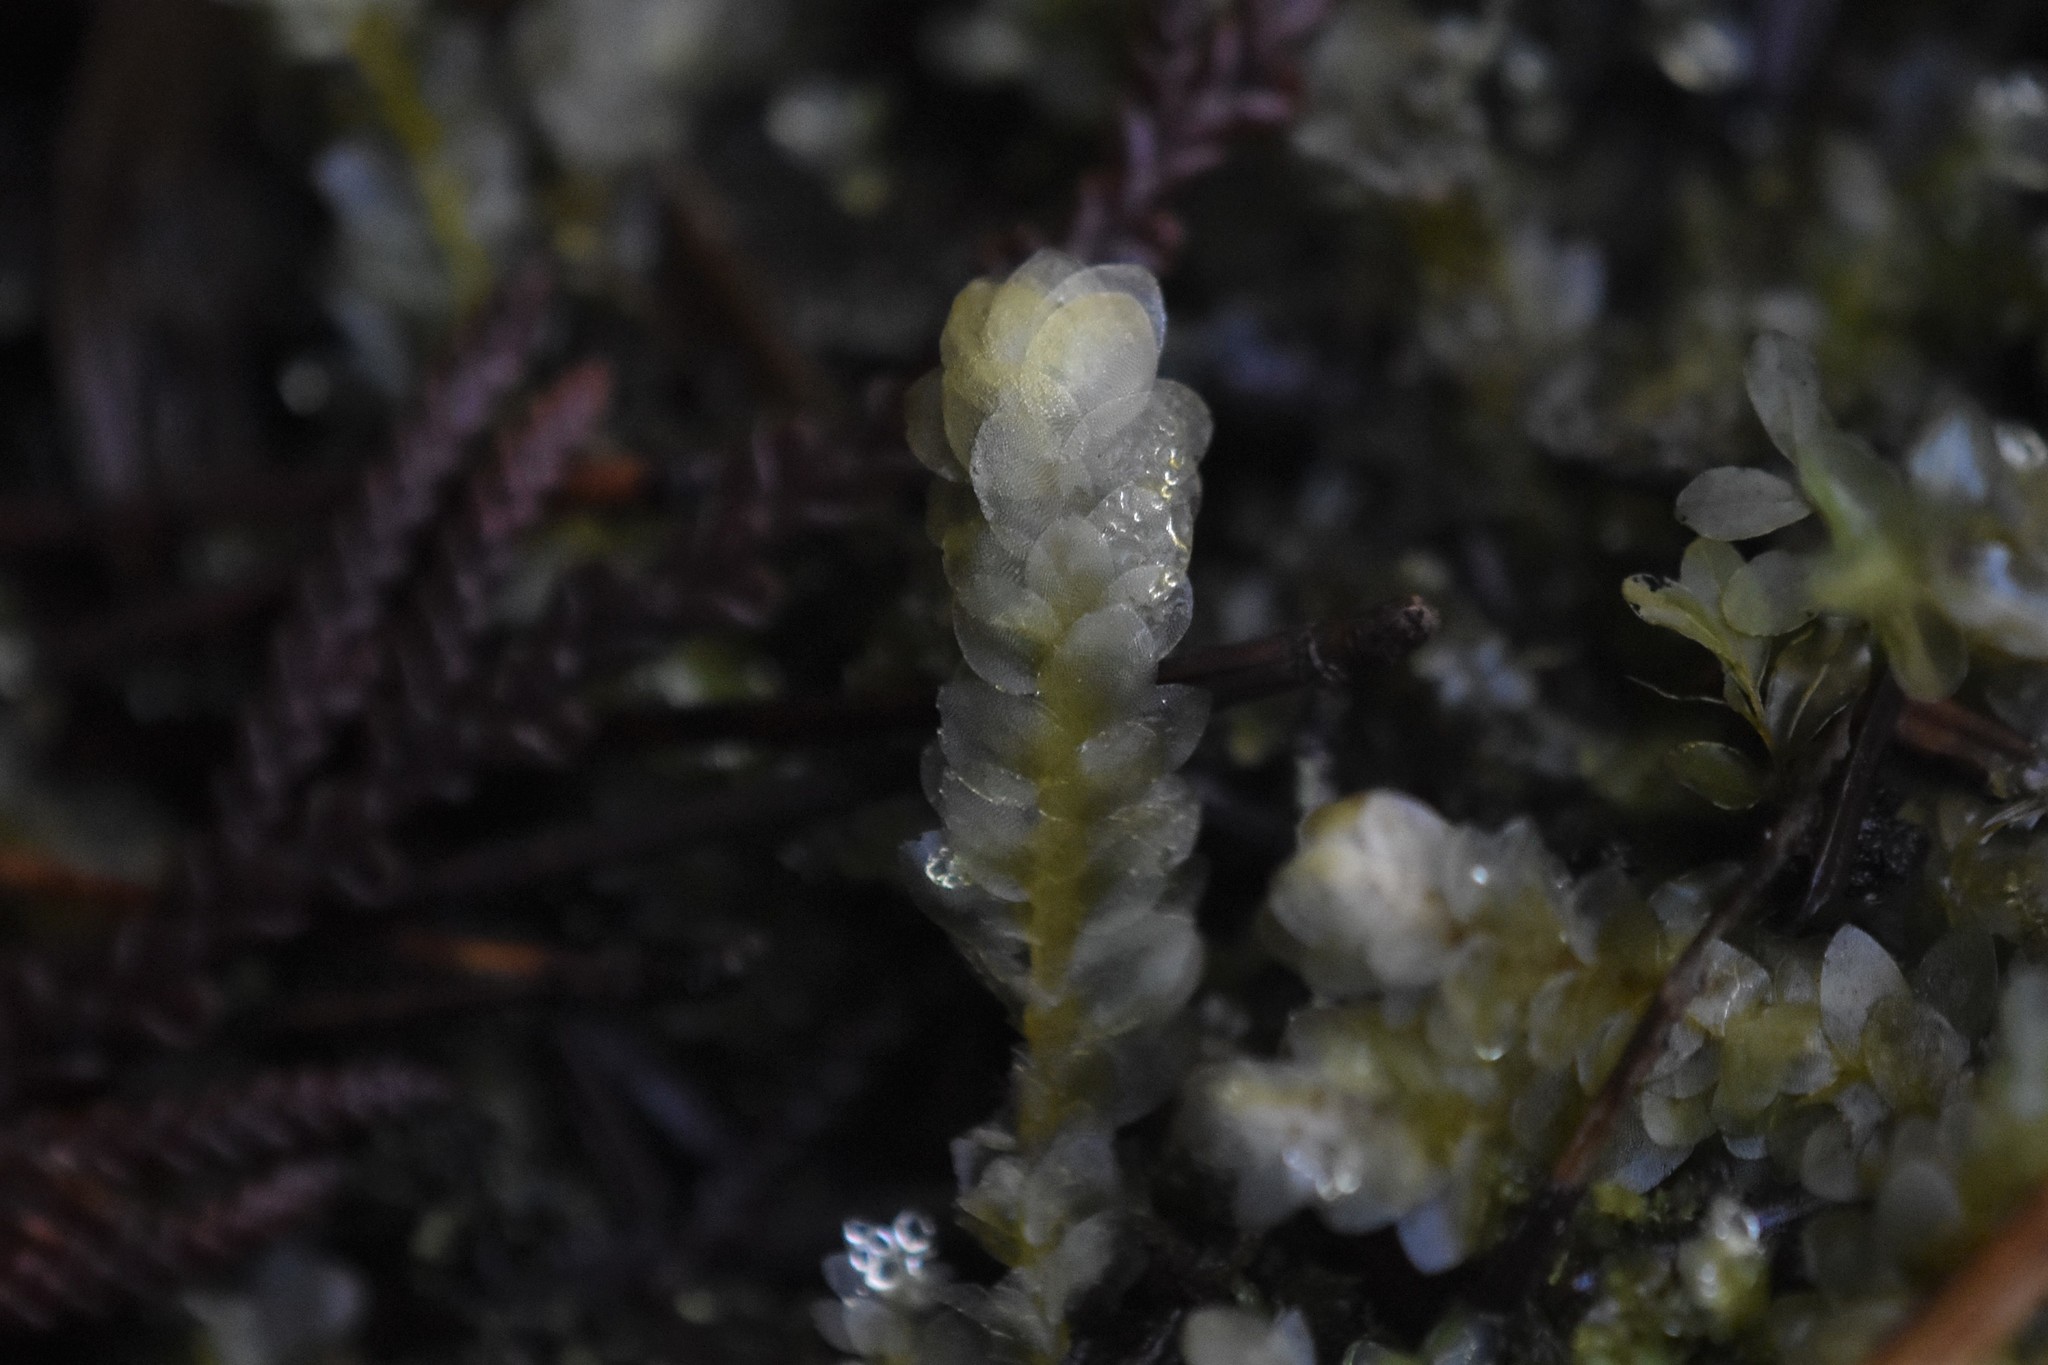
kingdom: Plantae
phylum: Bryophyta
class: Bryopsida
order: Hookeriales
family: Hookeriaceae
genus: Hookeria
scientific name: Hookeria lucens
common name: Shining hookeria
